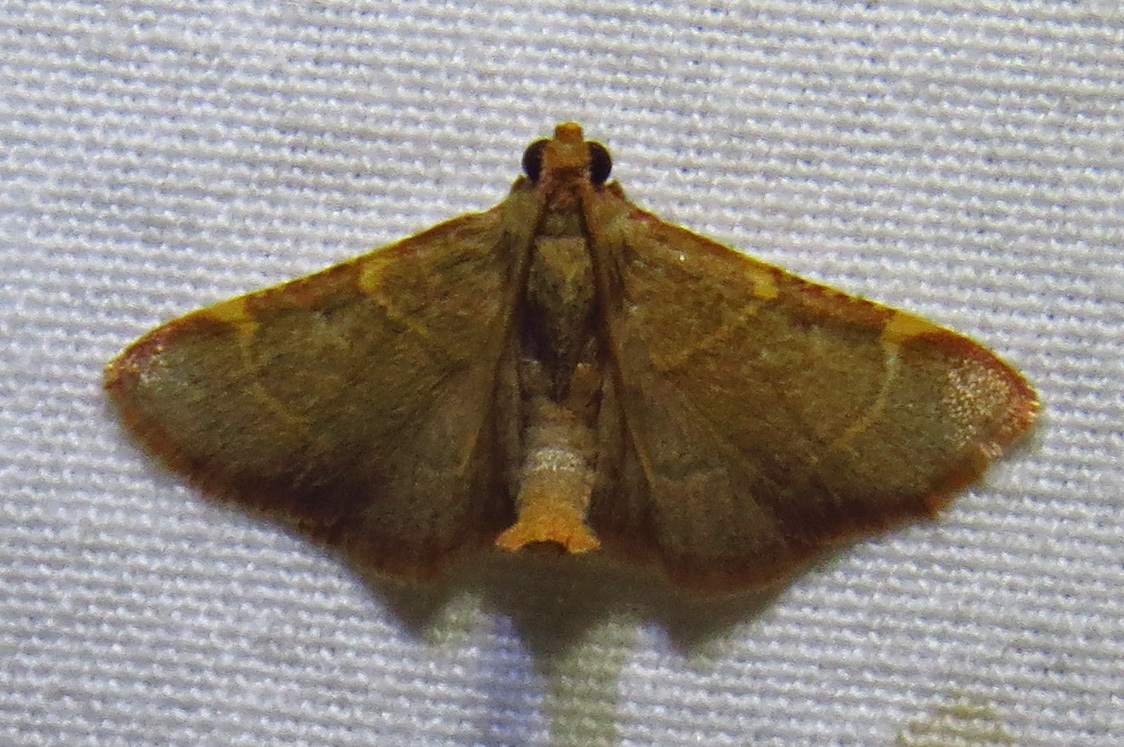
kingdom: Animalia
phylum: Arthropoda
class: Insecta
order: Lepidoptera
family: Pyralidae
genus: Hypsopygia
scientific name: Hypsopygia binodulalis
